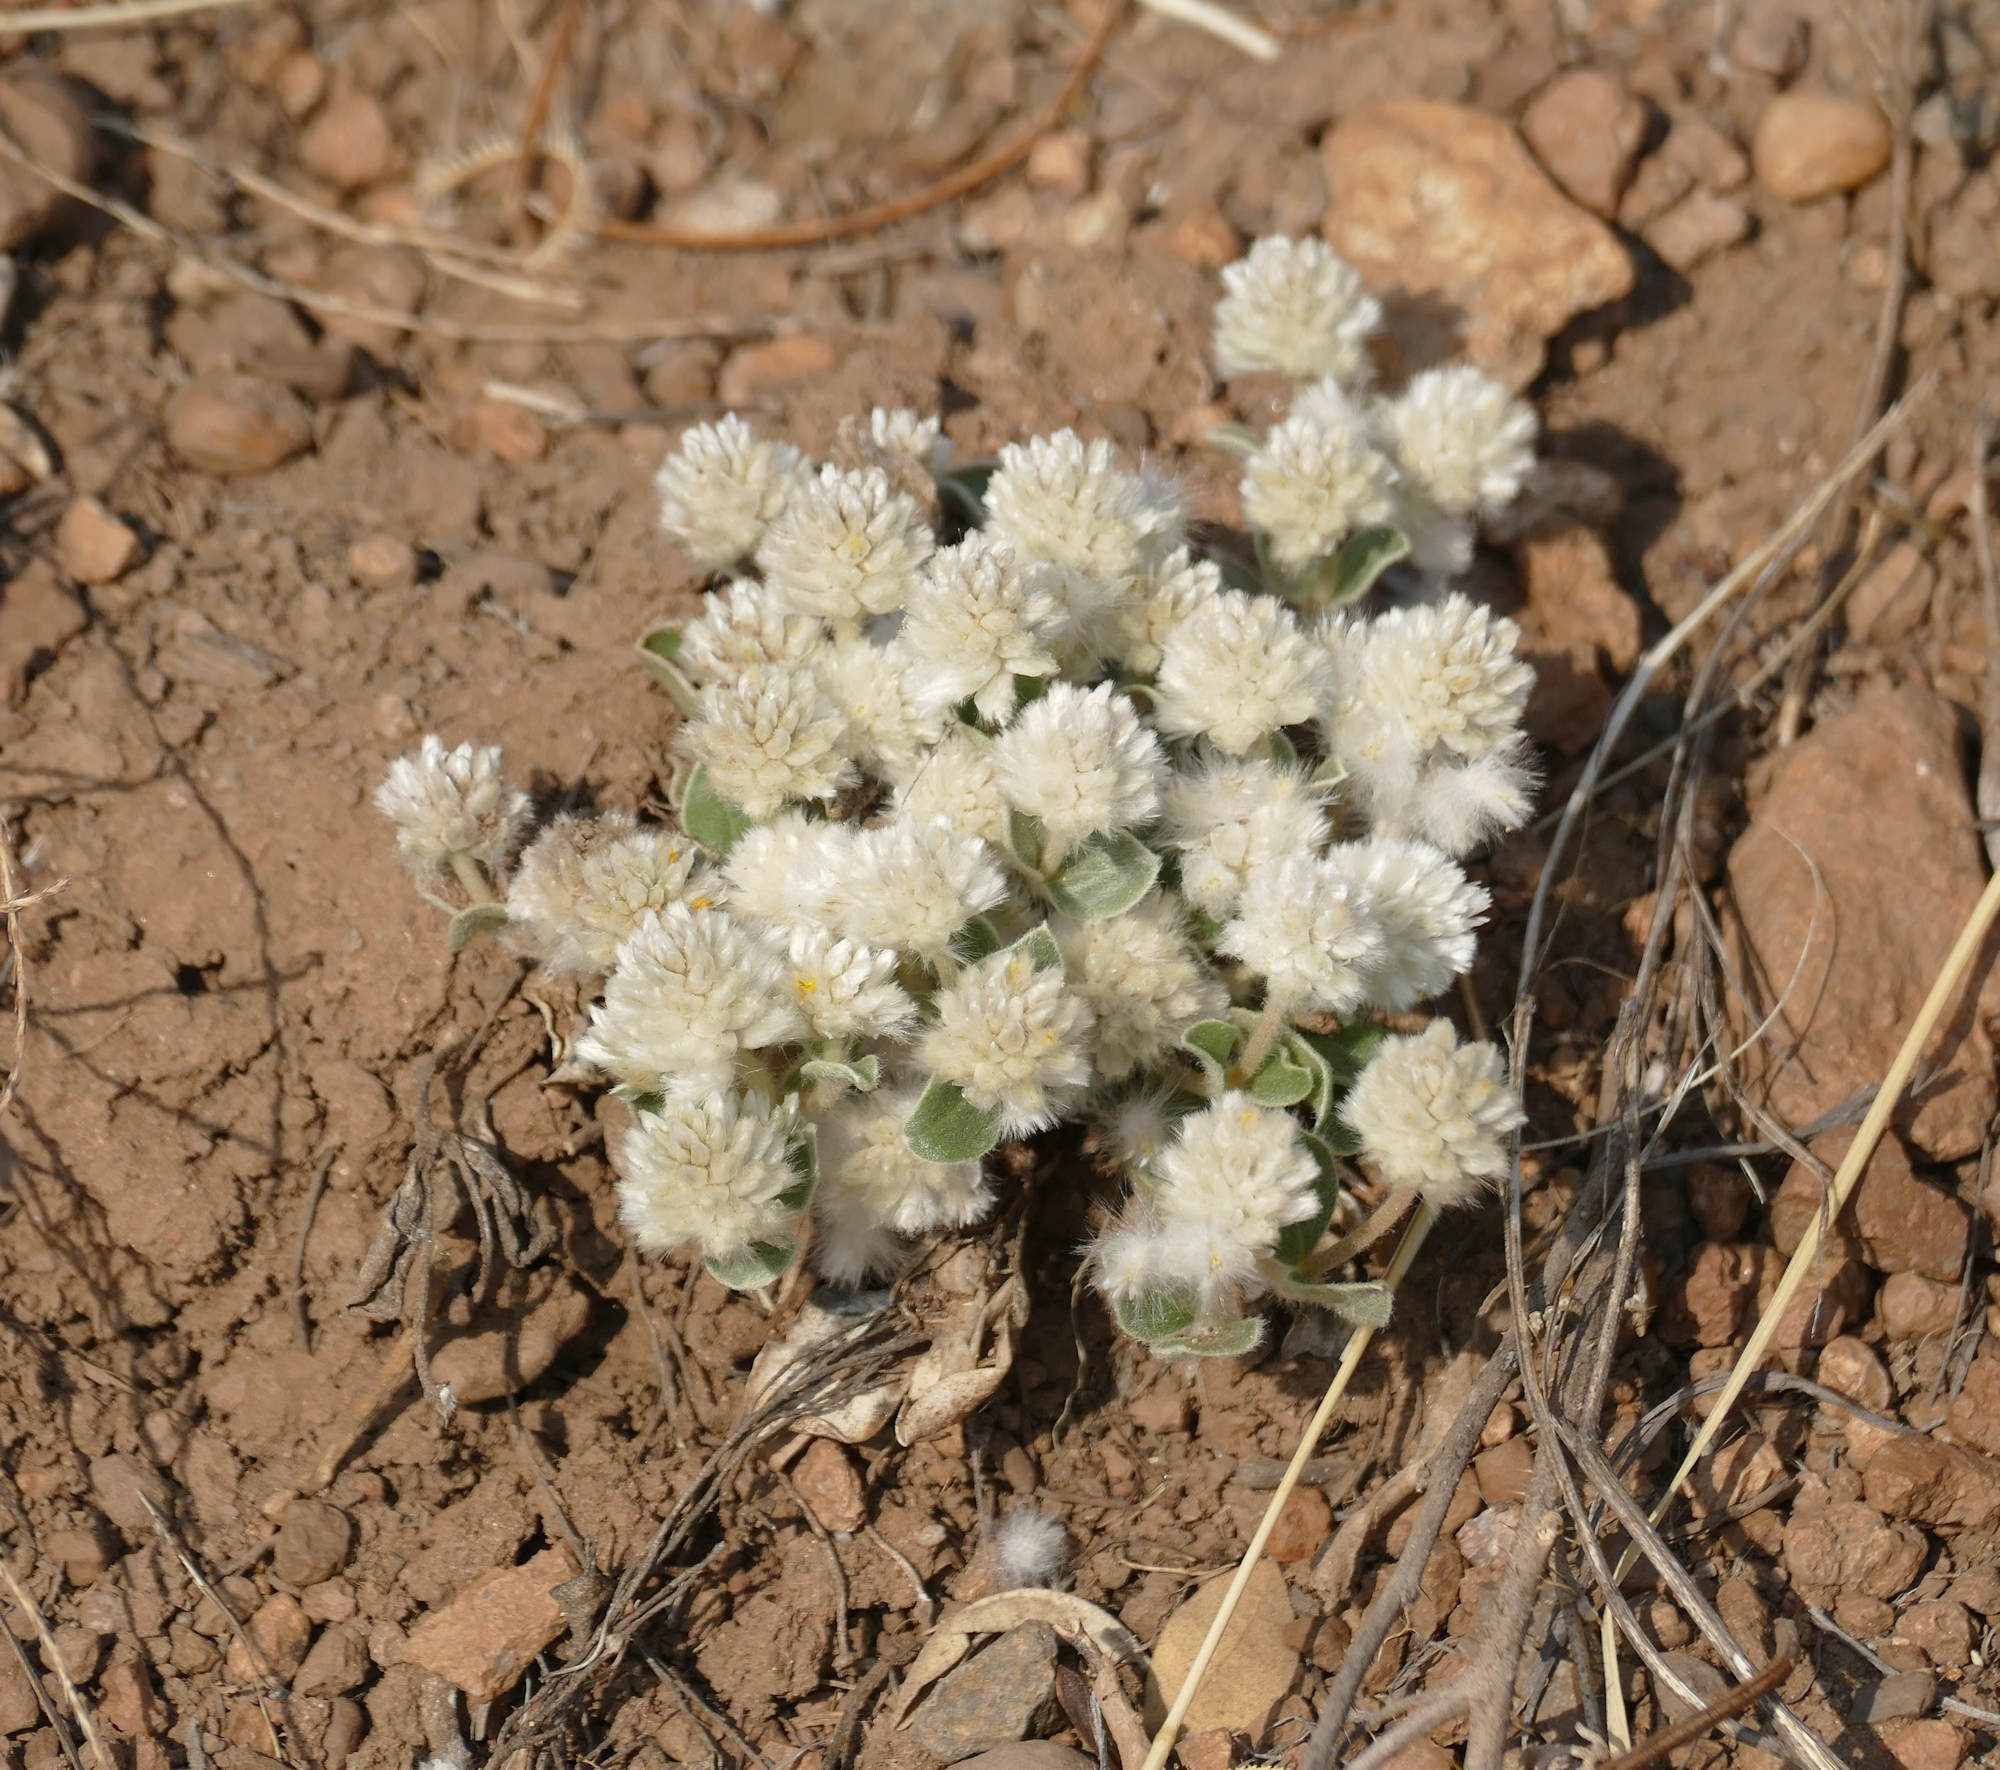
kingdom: Plantae
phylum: Tracheophyta
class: Magnoliopsida
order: Caryophyllales
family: Amaranthaceae
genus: Gomphrena
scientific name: Gomphrena caespitosa
